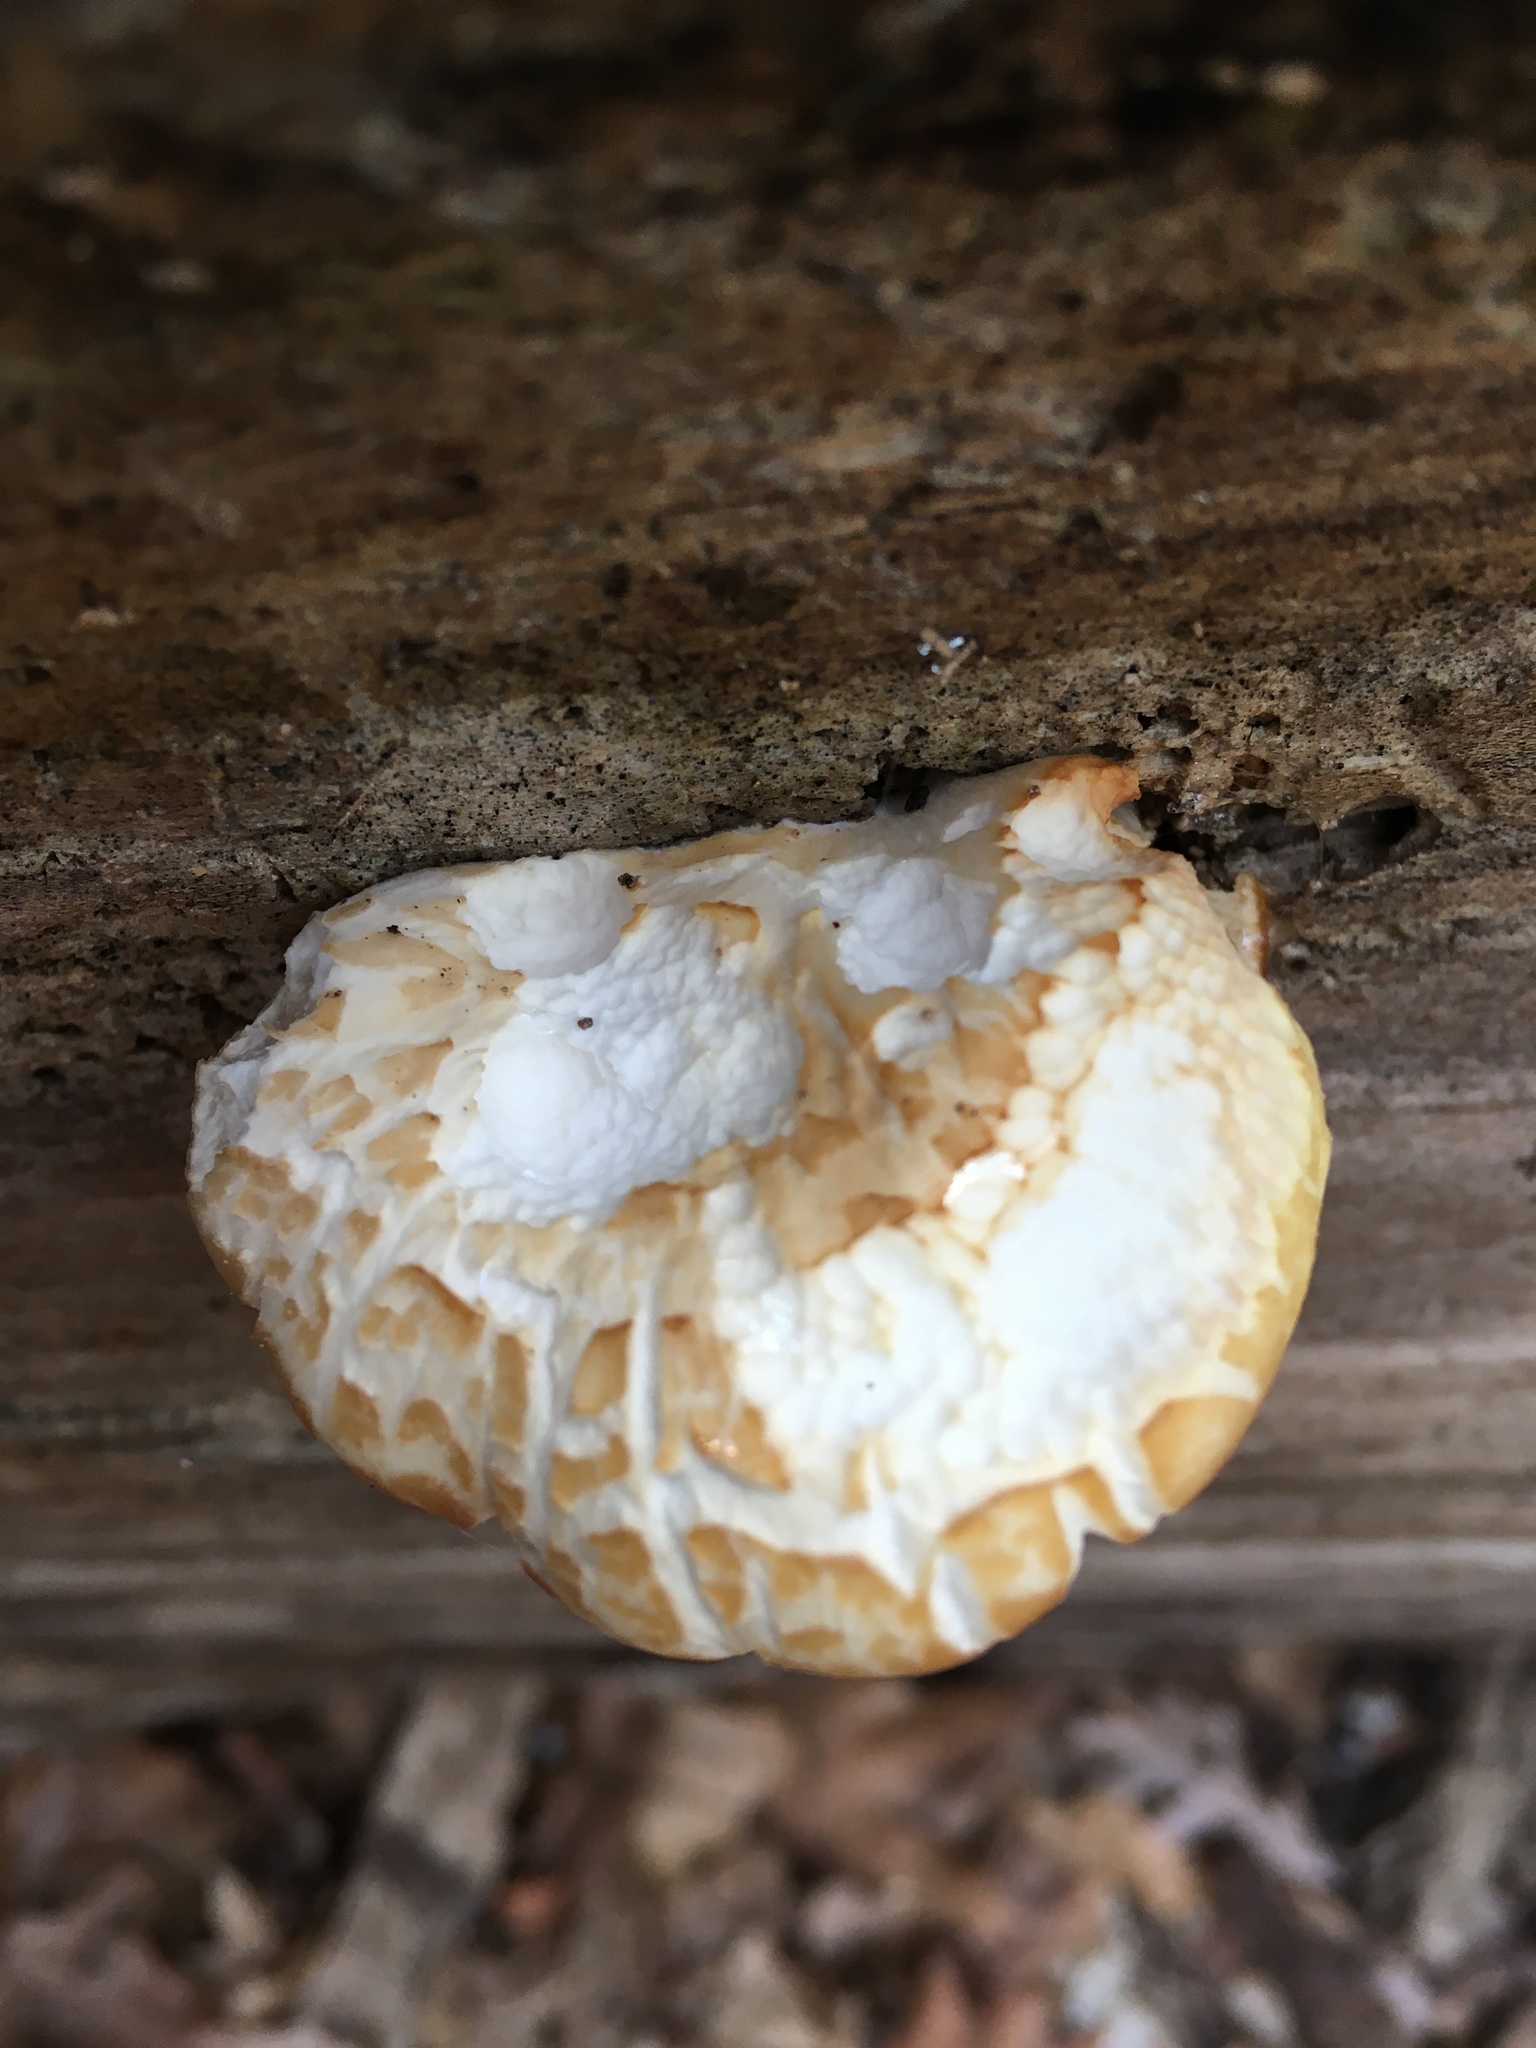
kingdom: Fungi
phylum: Basidiomycota
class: Agaricomycetes
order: Agaricales
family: Pleurotaceae
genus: Pleurotus
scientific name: Pleurotus ostreatus
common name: Oyster mushroom
